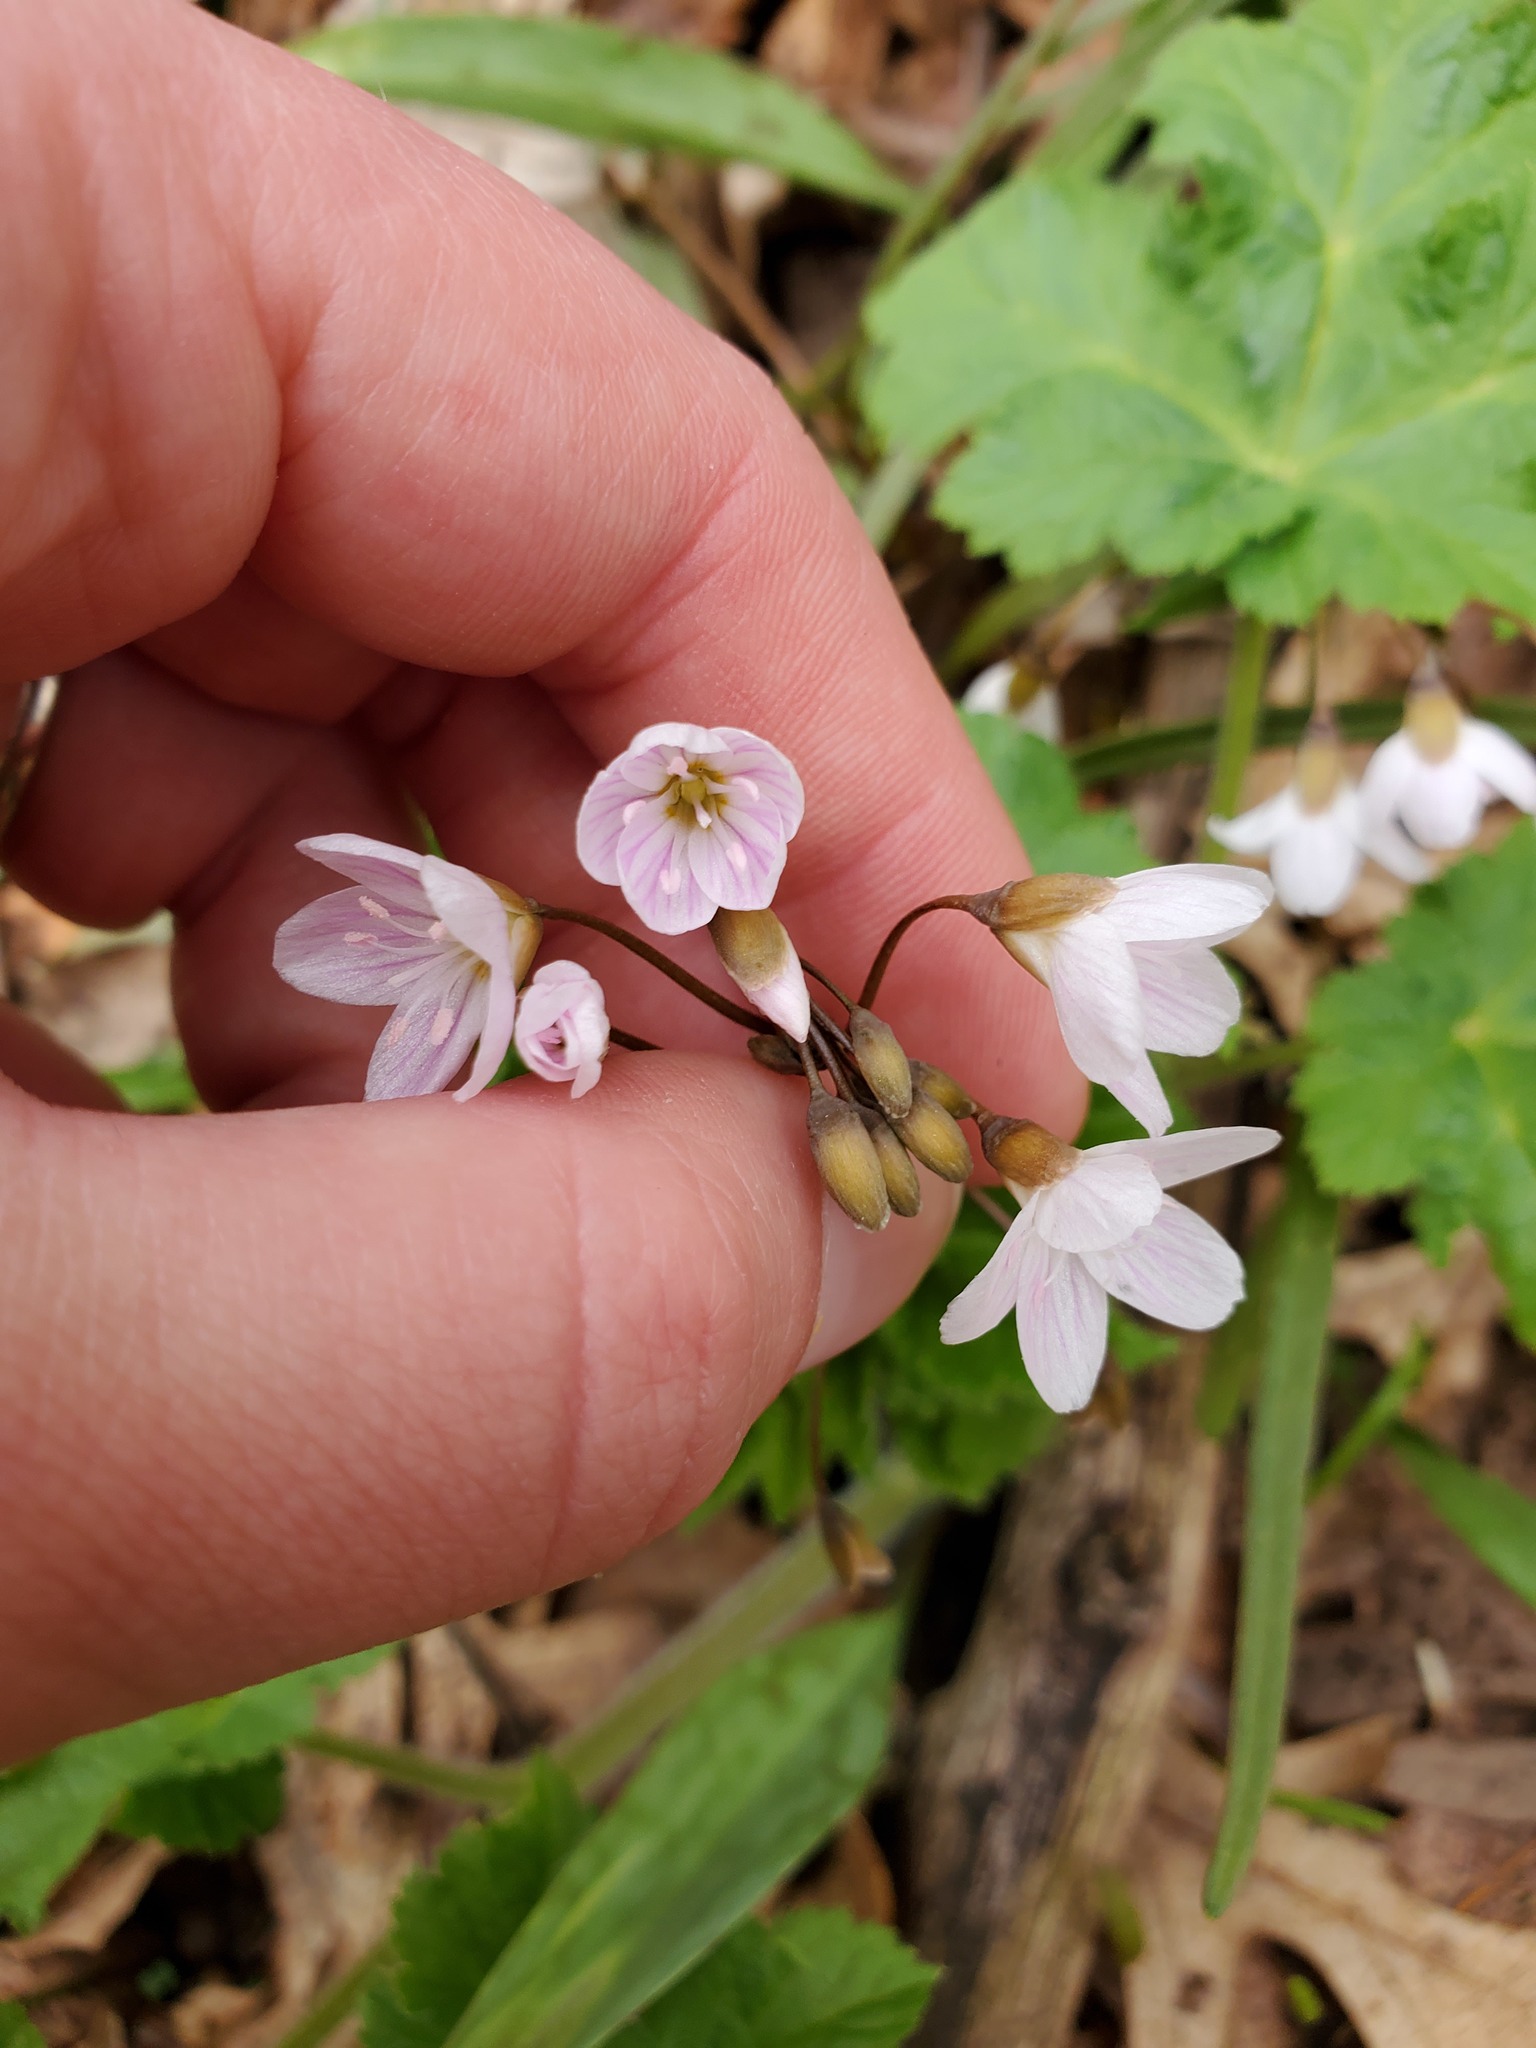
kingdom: Plantae
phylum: Tracheophyta
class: Magnoliopsida
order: Caryophyllales
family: Montiaceae
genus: Claytonia
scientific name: Claytonia virginica
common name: Virginia springbeauty
